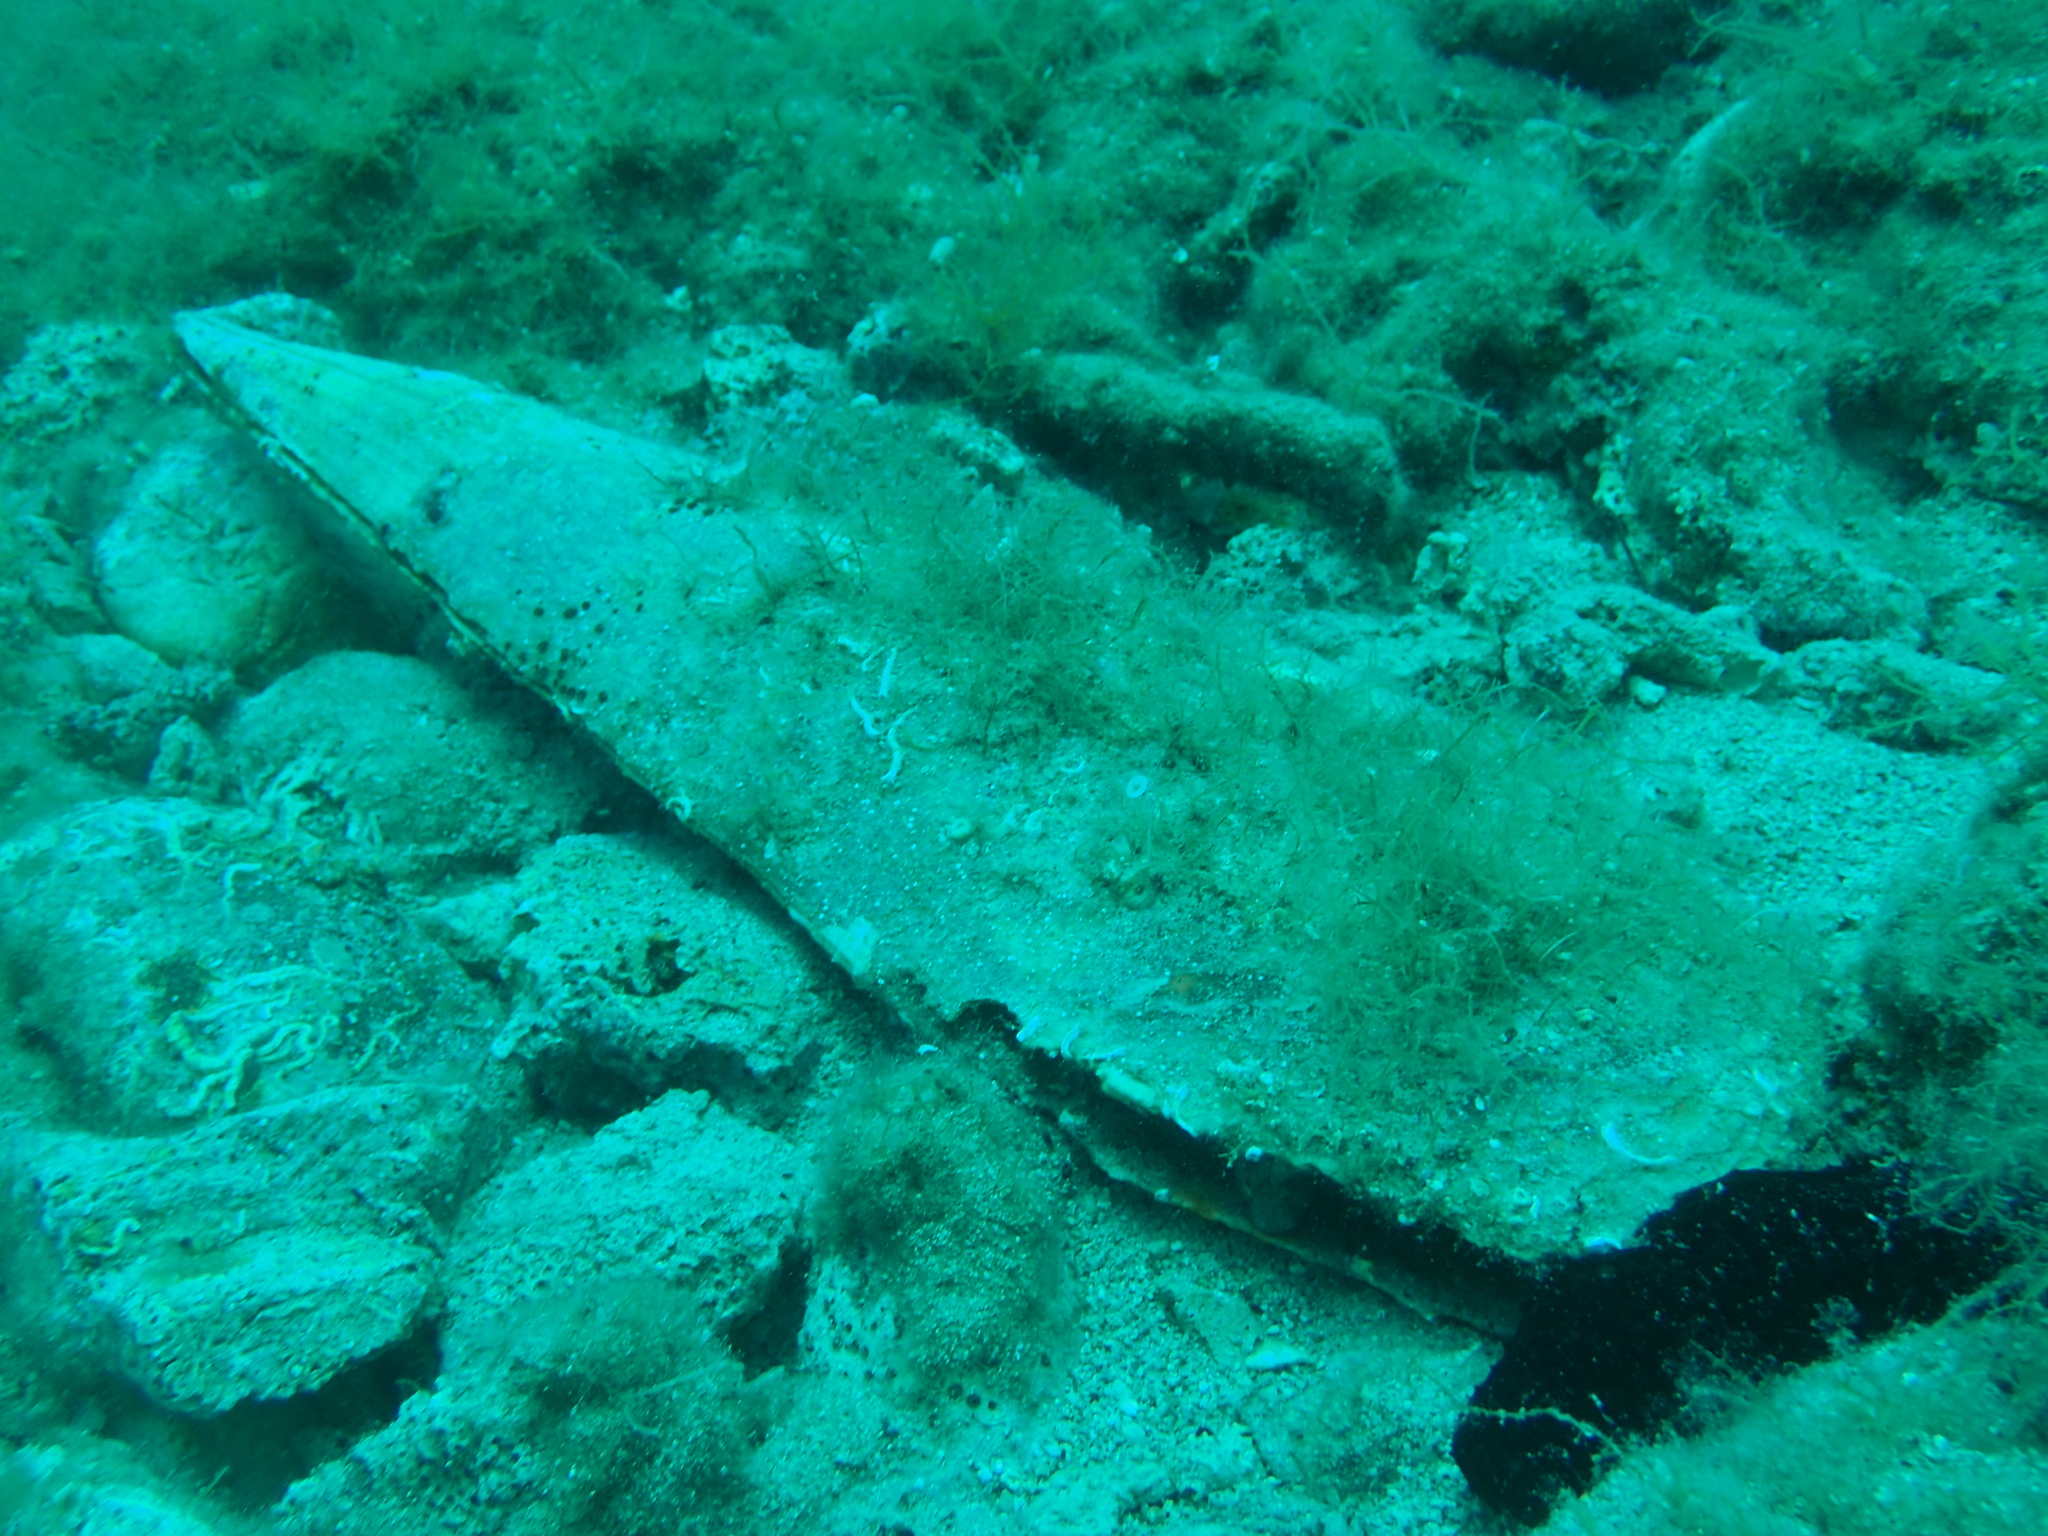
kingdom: Animalia
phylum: Mollusca
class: Bivalvia
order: Ostreida
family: Pinnidae
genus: Pinna
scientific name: Pinna nobilis
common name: Fan mussel
